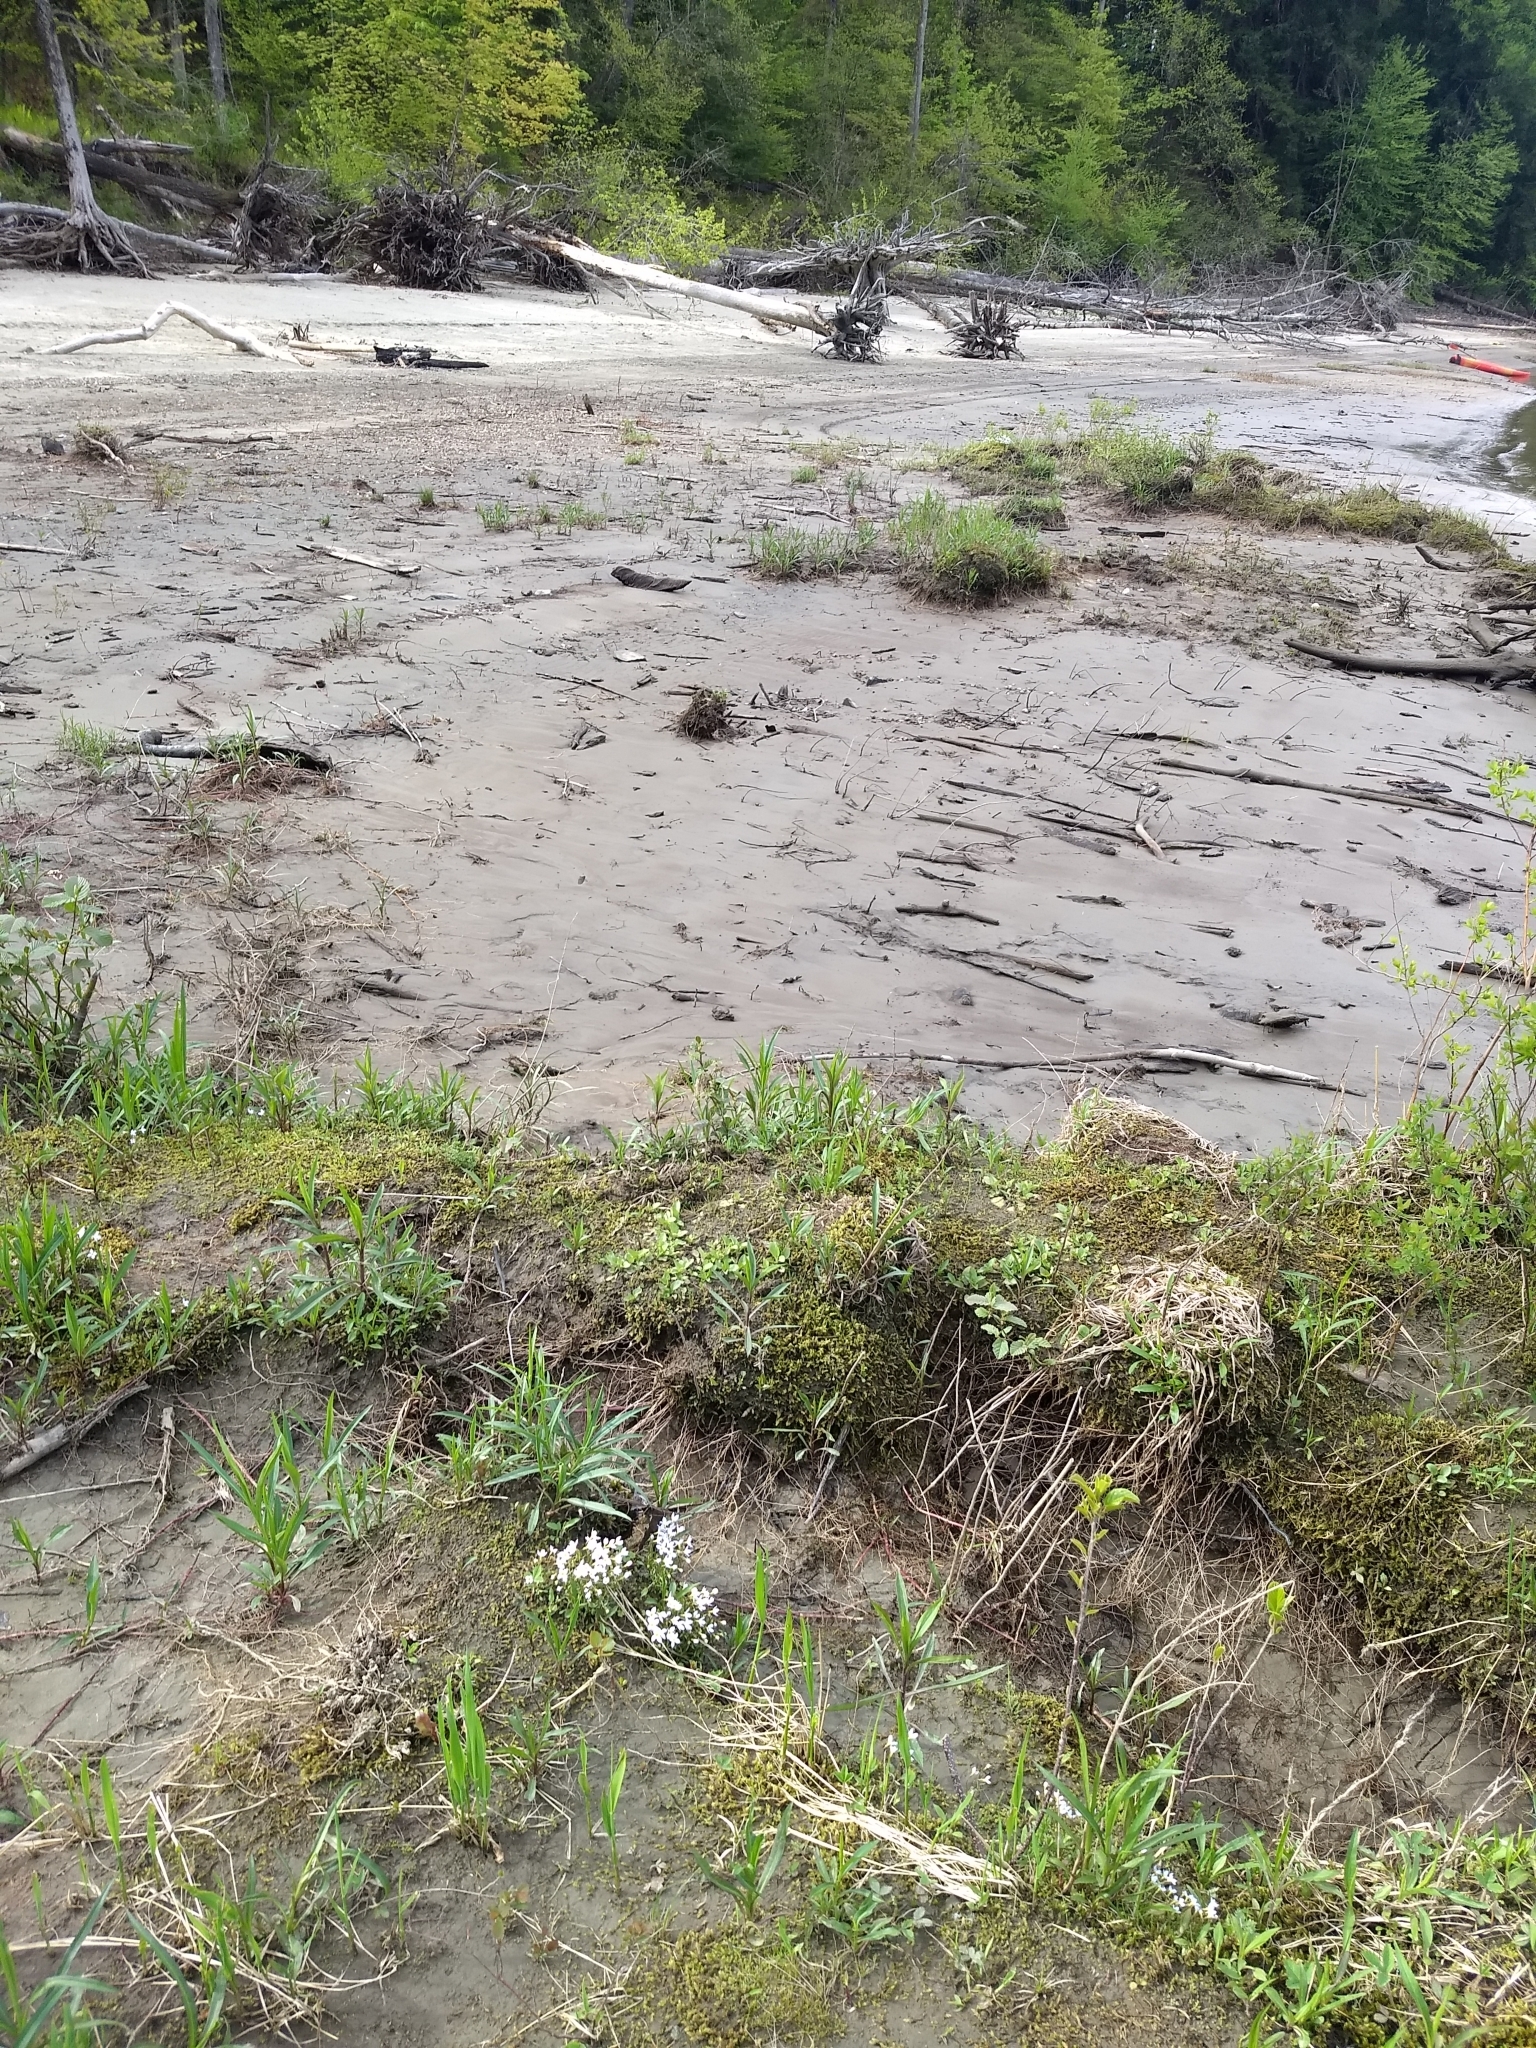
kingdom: Plantae
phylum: Tracheophyta
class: Magnoliopsida
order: Gentianales
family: Rubiaceae
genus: Houstonia
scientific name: Houstonia caerulea
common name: Bluets
